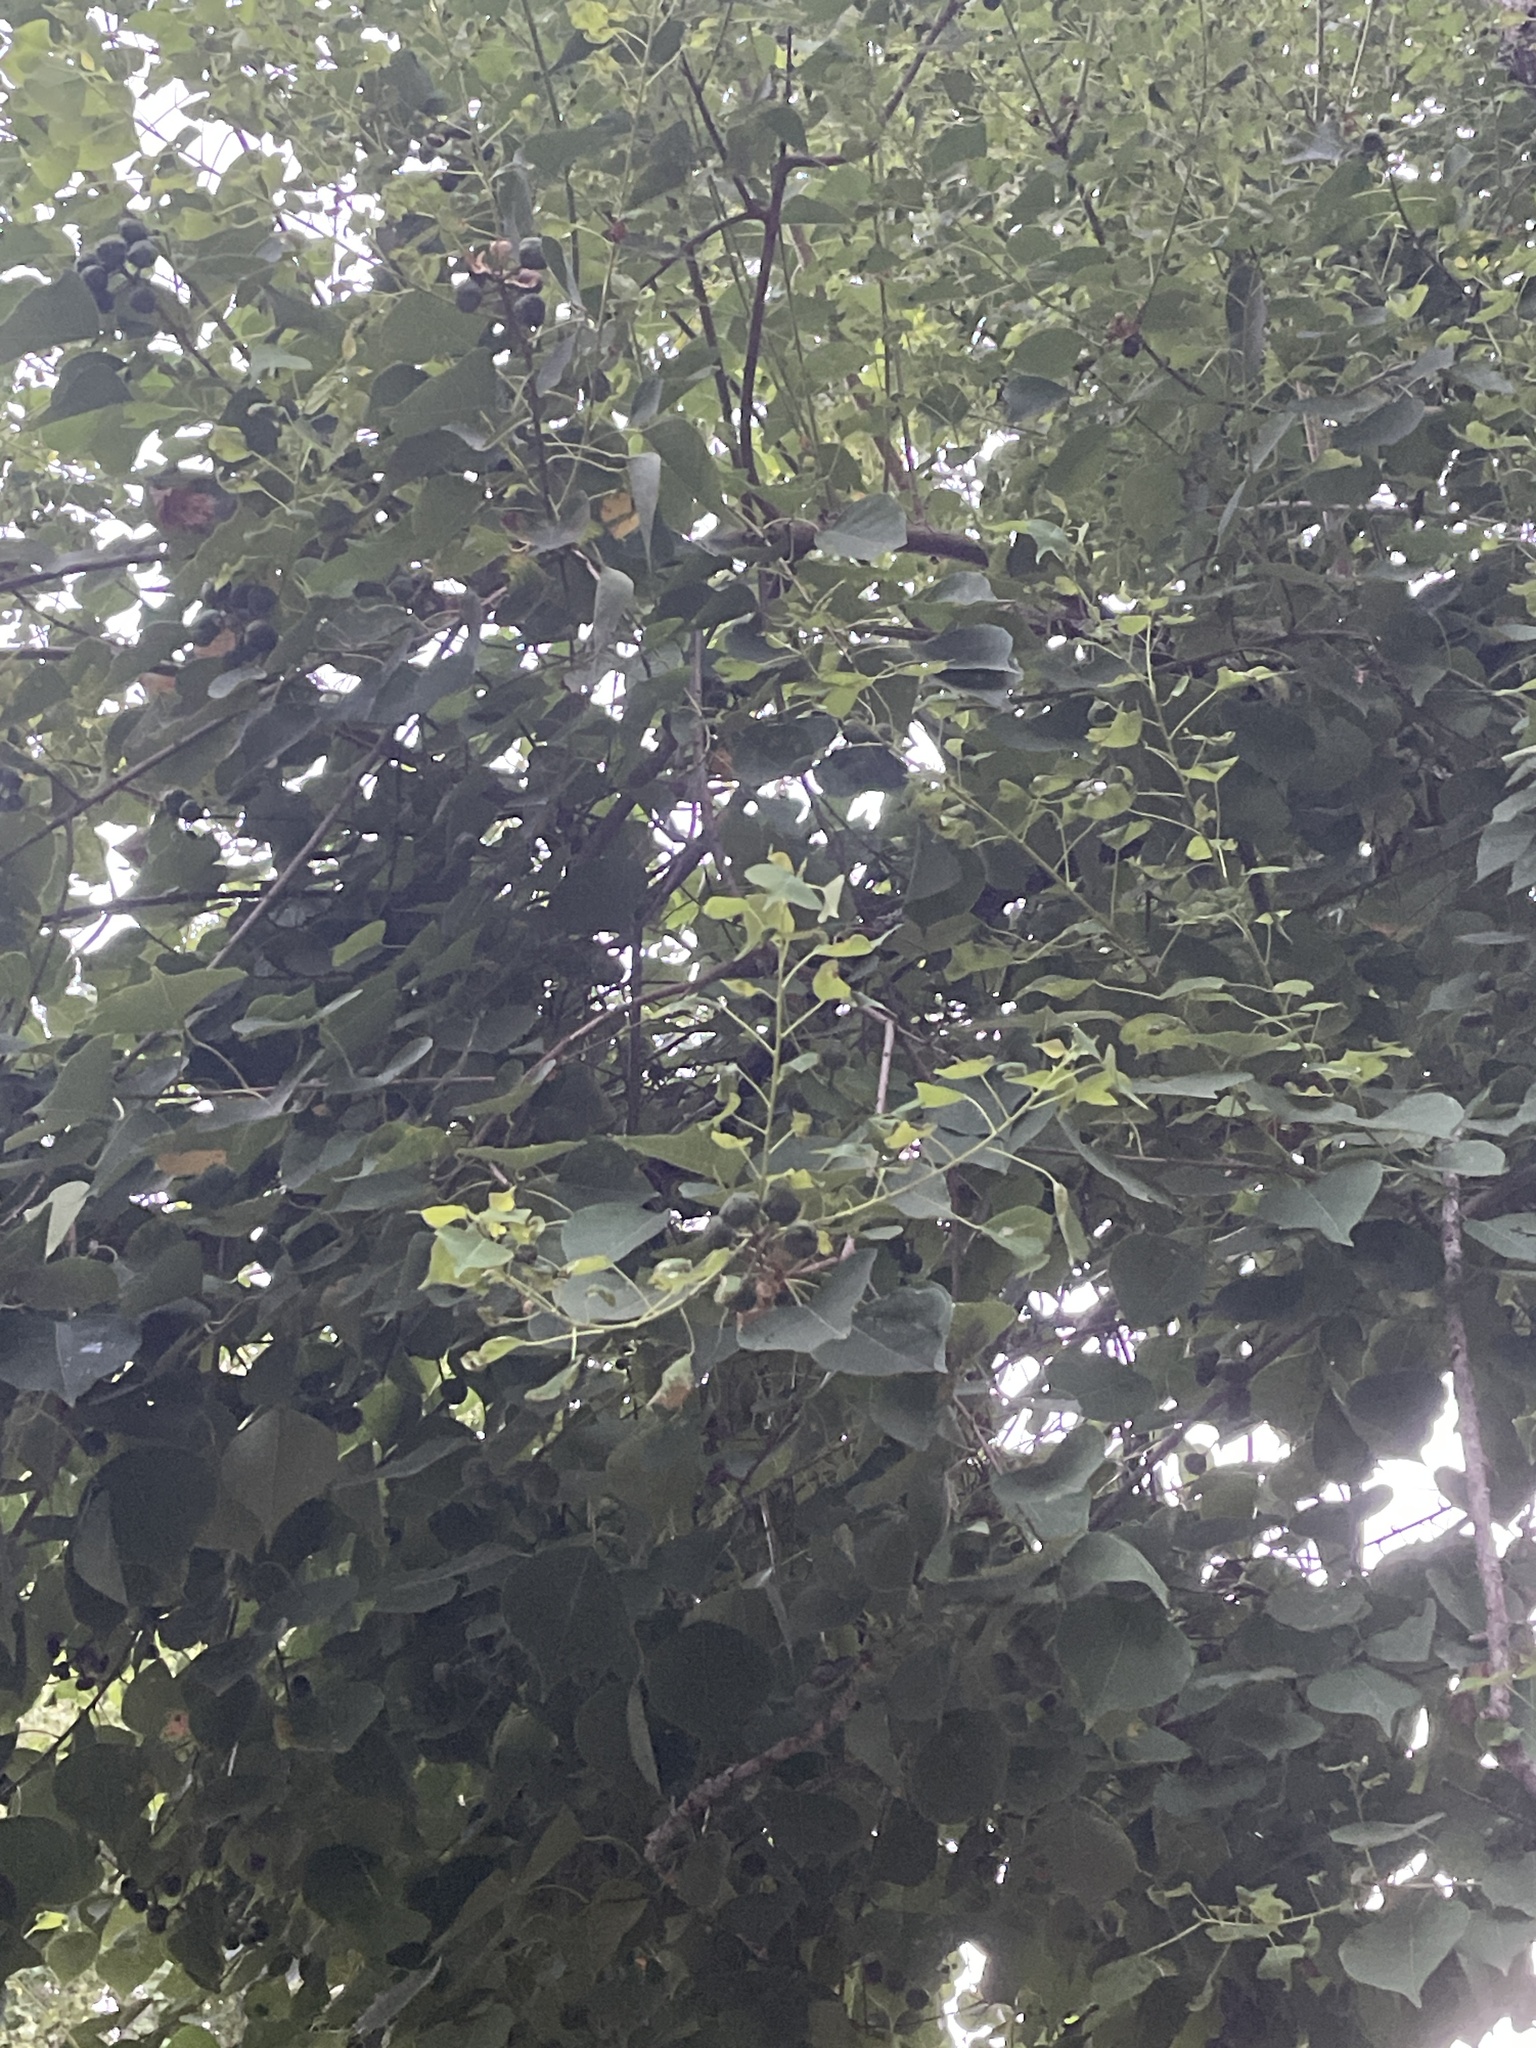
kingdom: Plantae
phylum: Tracheophyta
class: Magnoliopsida
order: Malpighiales
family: Euphorbiaceae
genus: Triadica
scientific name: Triadica sebifera
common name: Chinese tallow
